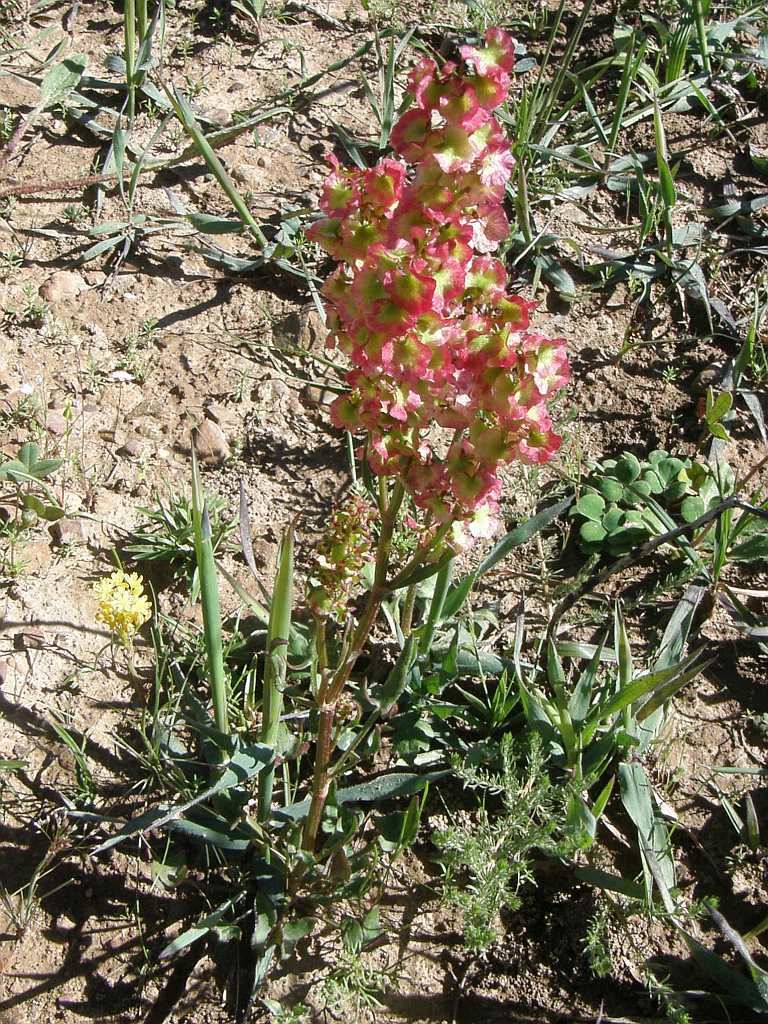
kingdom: Plantae
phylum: Tracheophyta
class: Magnoliopsida
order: Caryophyllales
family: Polygonaceae
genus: Rumex
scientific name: Rumex sagittatus
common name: Climbing dock
